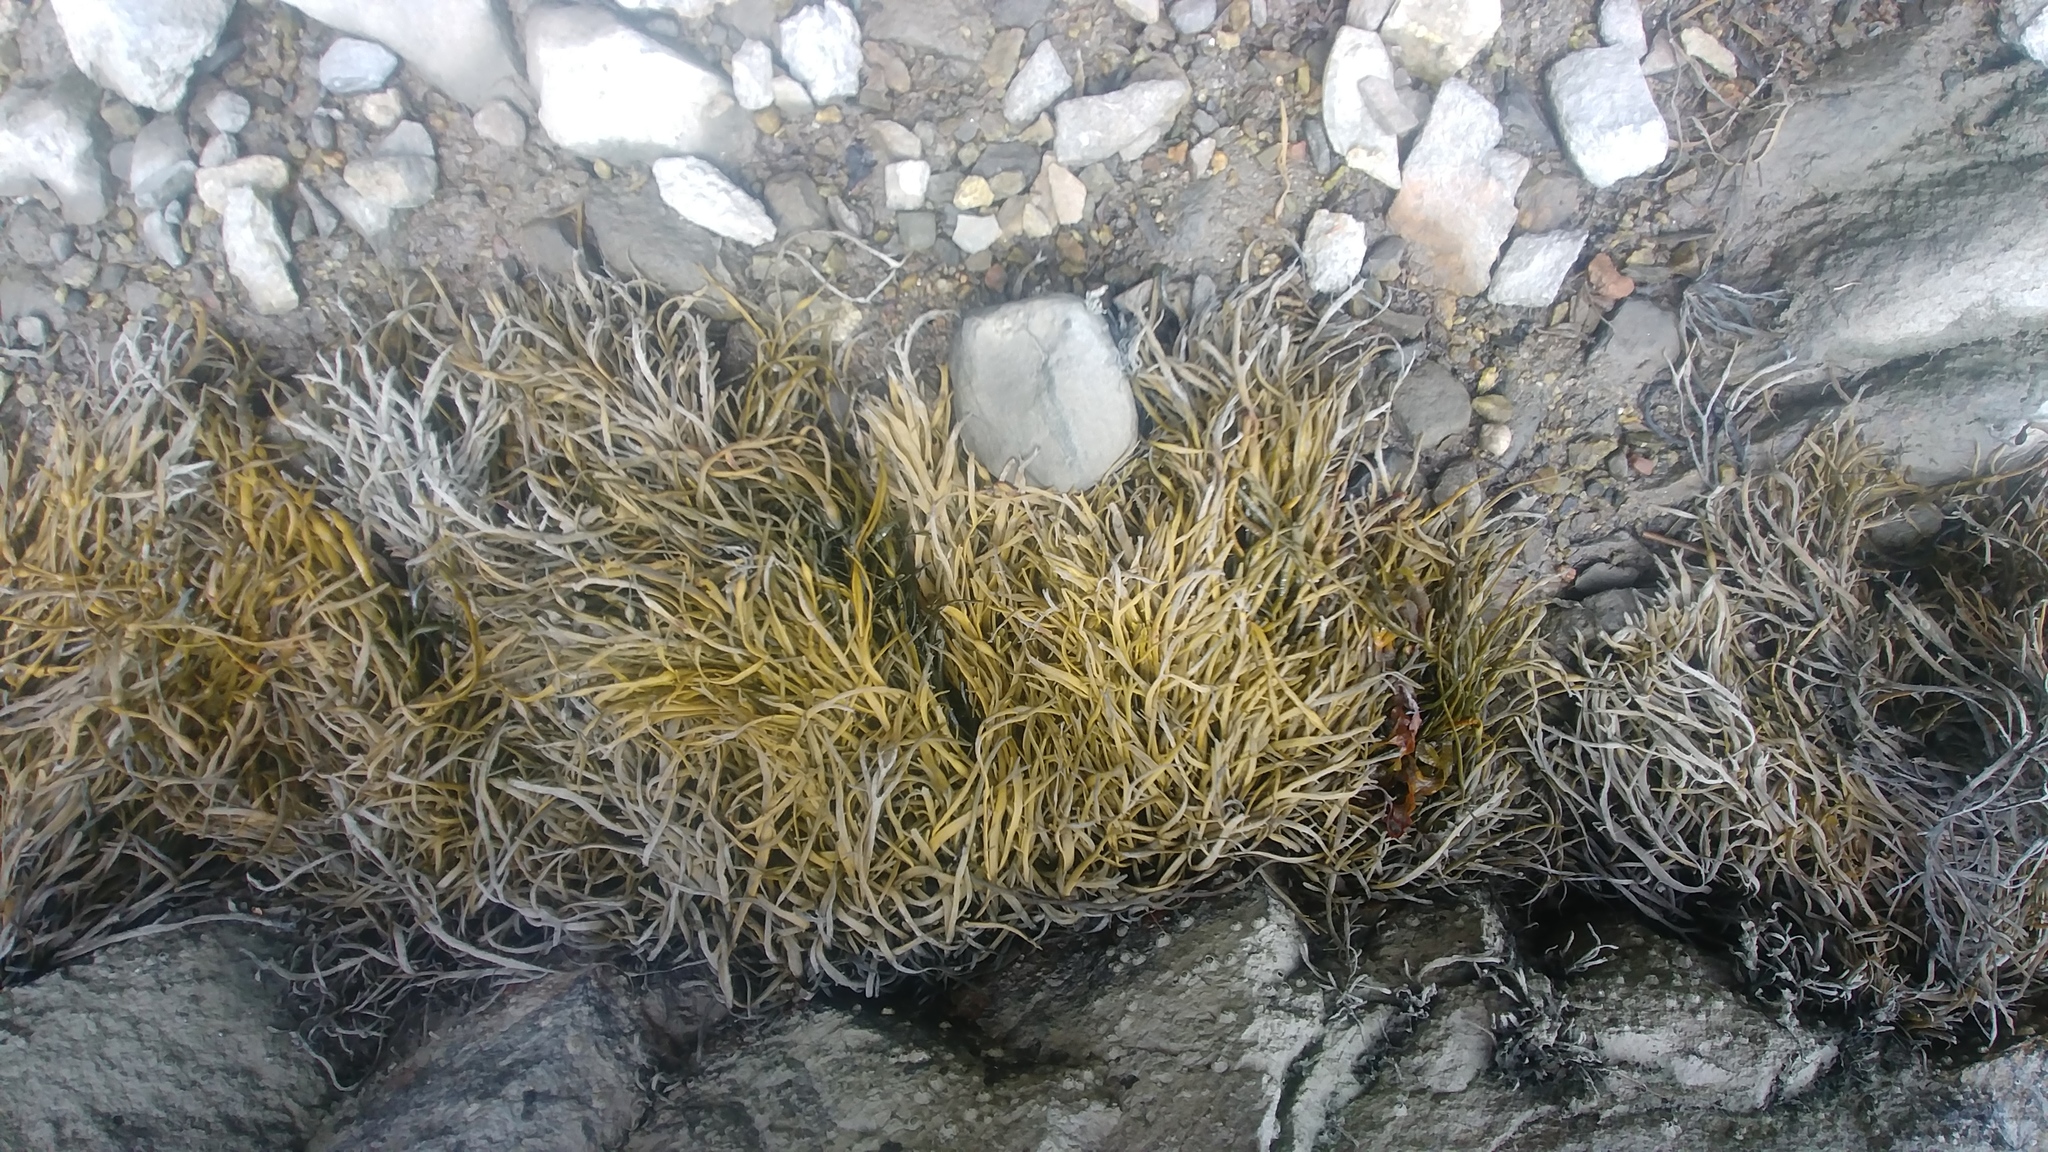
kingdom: Chromista
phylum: Ochrophyta
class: Phaeophyceae
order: Fucales
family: Fucaceae
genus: Ascophyllum
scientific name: Ascophyllum nodosum
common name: Knotted wrack
